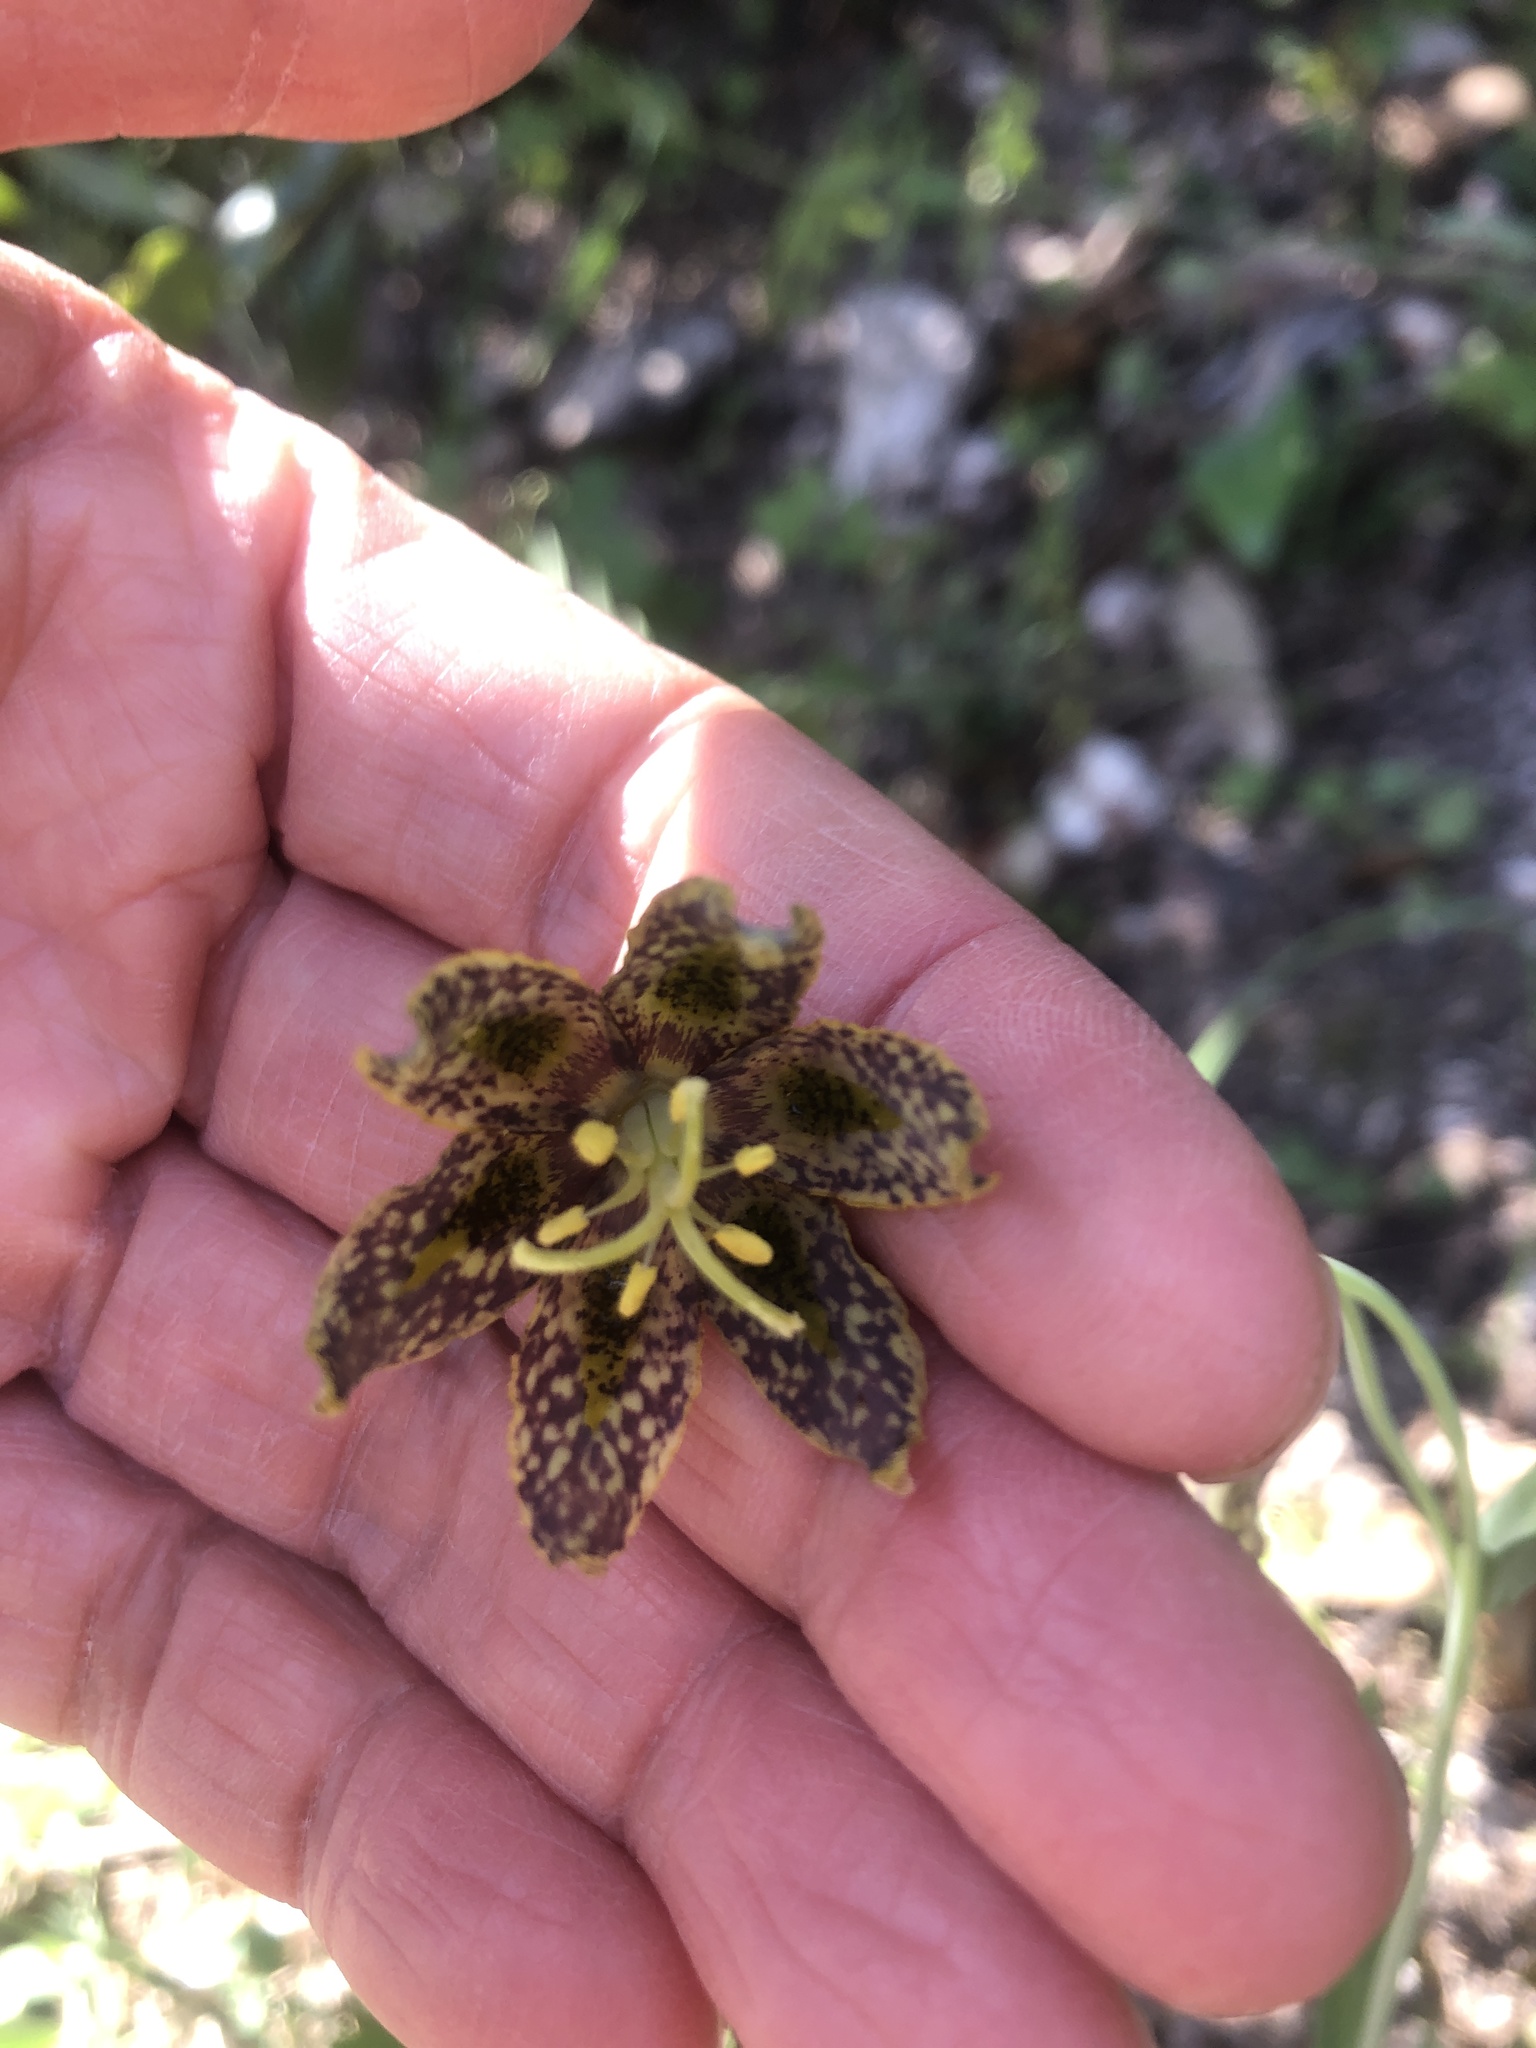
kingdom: Plantae
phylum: Tracheophyta
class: Liliopsida
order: Liliales
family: Liliaceae
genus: Fritillaria
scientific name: Fritillaria affinis
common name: Ojai fritillary
